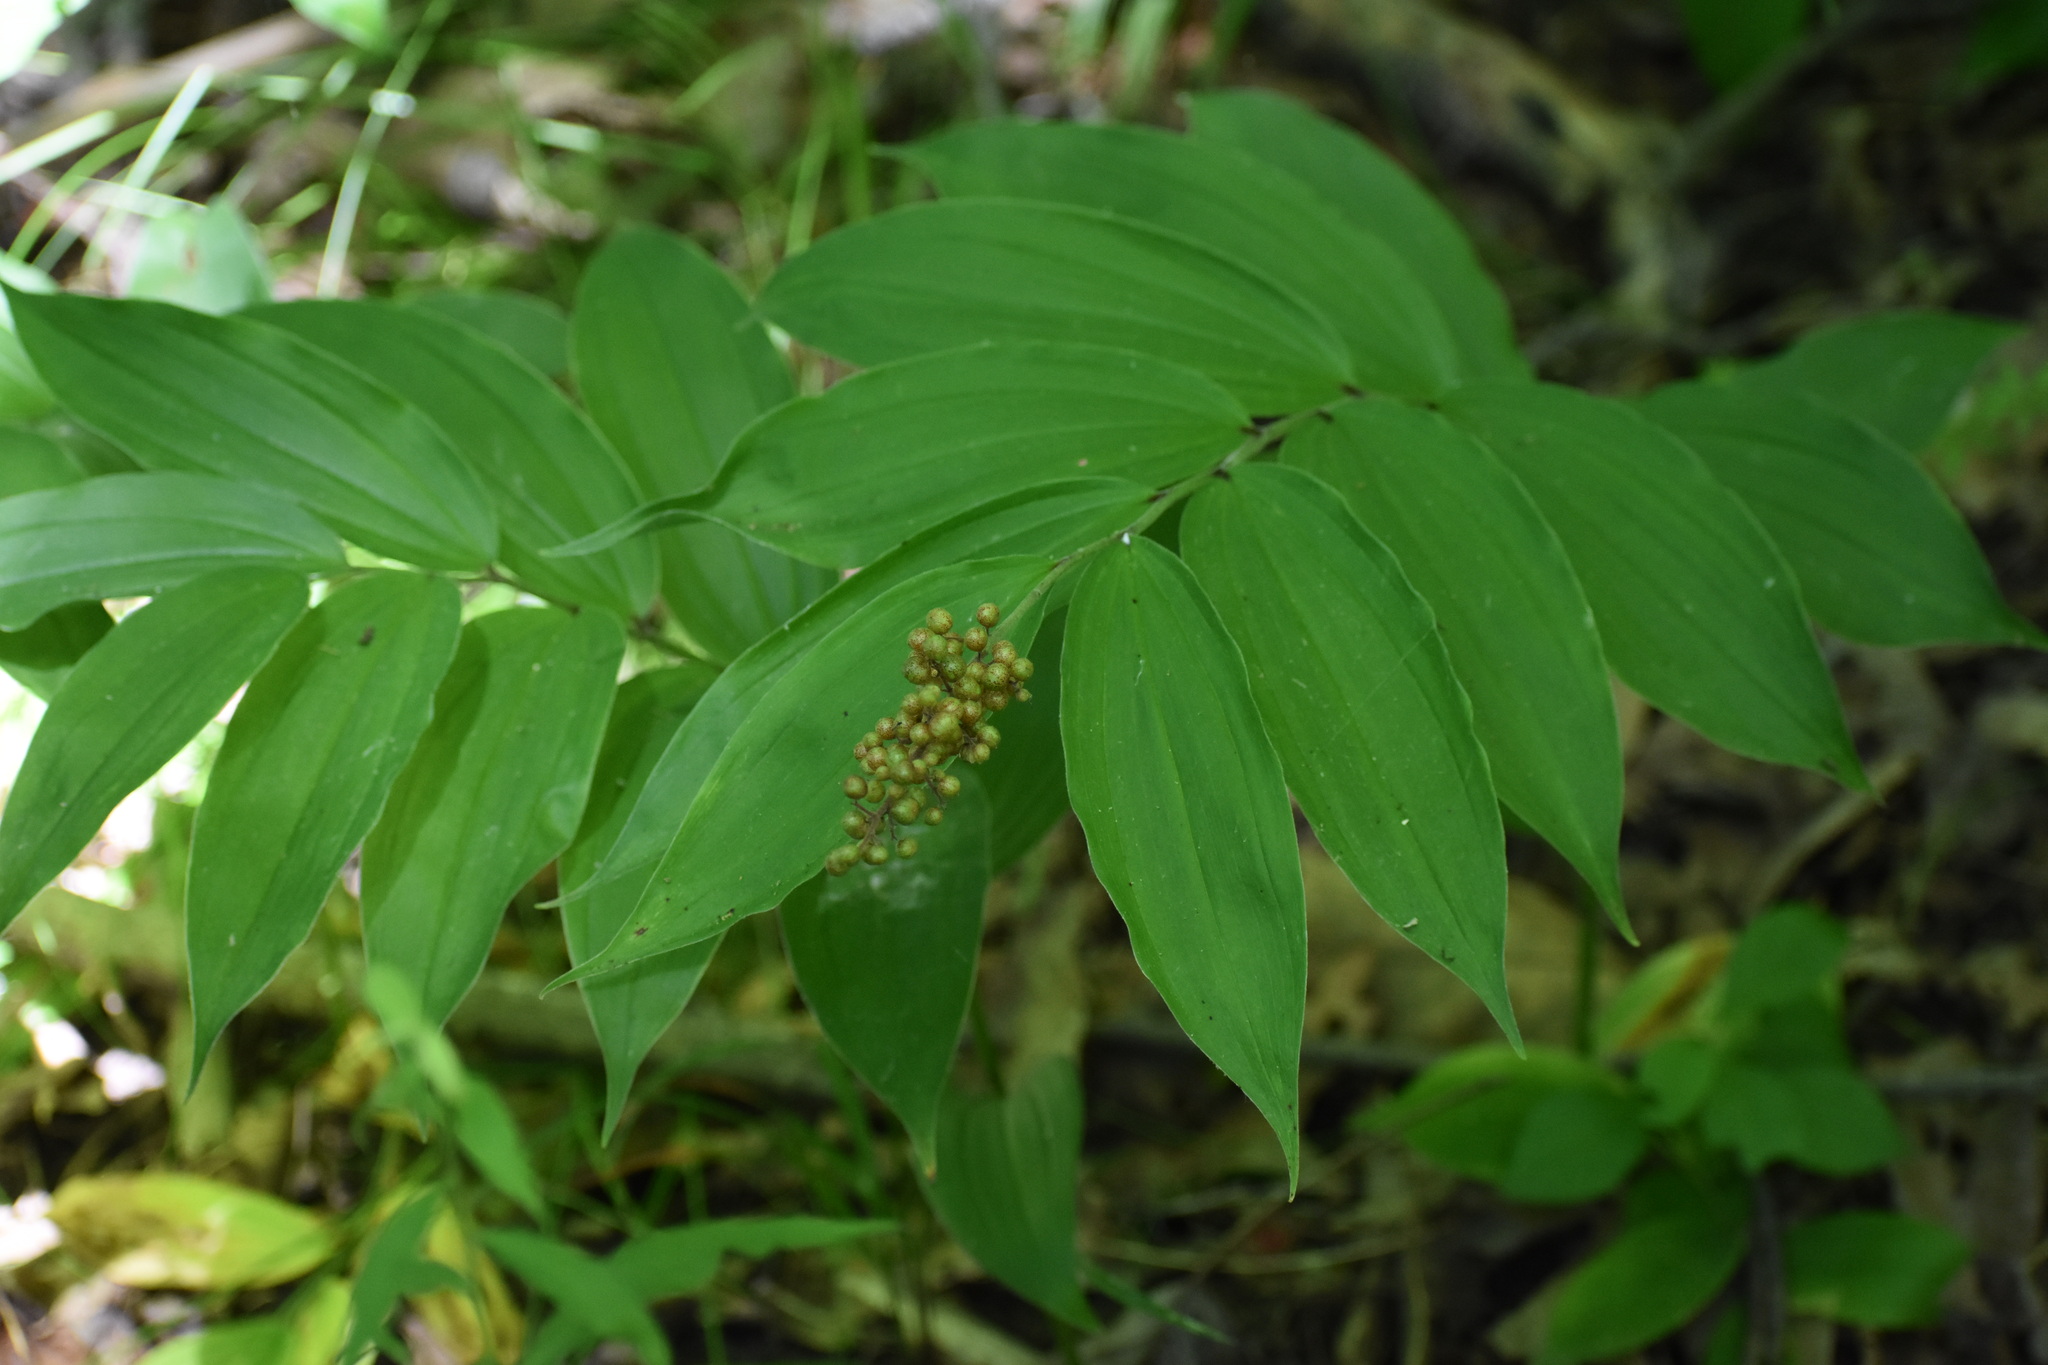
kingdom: Plantae
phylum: Tracheophyta
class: Liliopsida
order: Asparagales
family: Asparagaceae
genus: Maianthemum
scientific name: Maianthemum racemosum
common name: False spikenard
